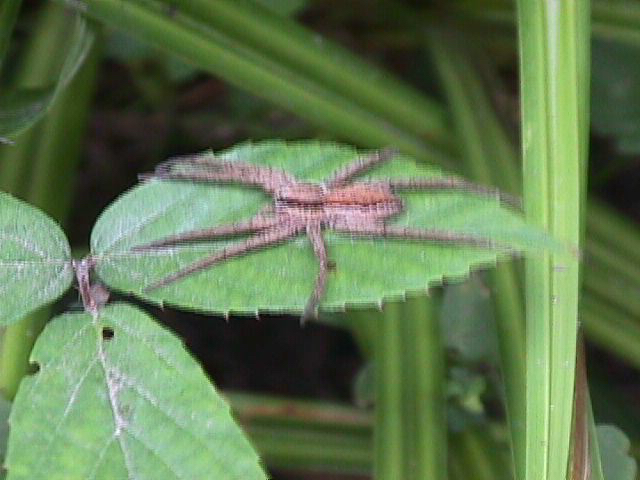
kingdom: Animalia
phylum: Arthropoda
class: Arachnida
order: Araneae
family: Pisauridae
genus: Dolomedes
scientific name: Dolomedes minor
